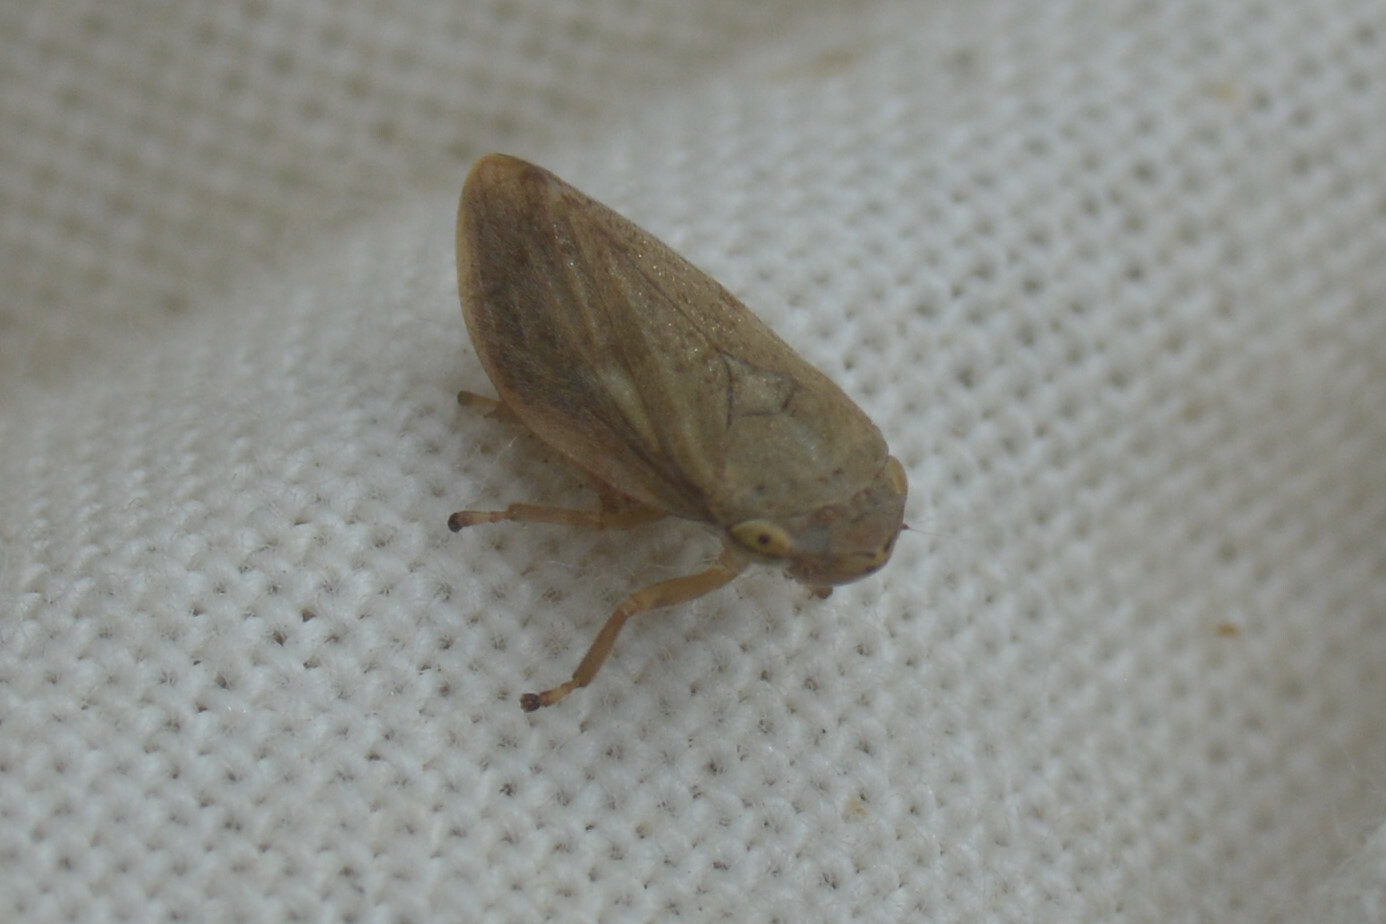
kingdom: Animalia
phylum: Arthropoda
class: Insecta
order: Hemiptera
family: Aphrophoridae
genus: Philaenus
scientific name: Philaenus spumarius
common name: Meadow spittlebug
